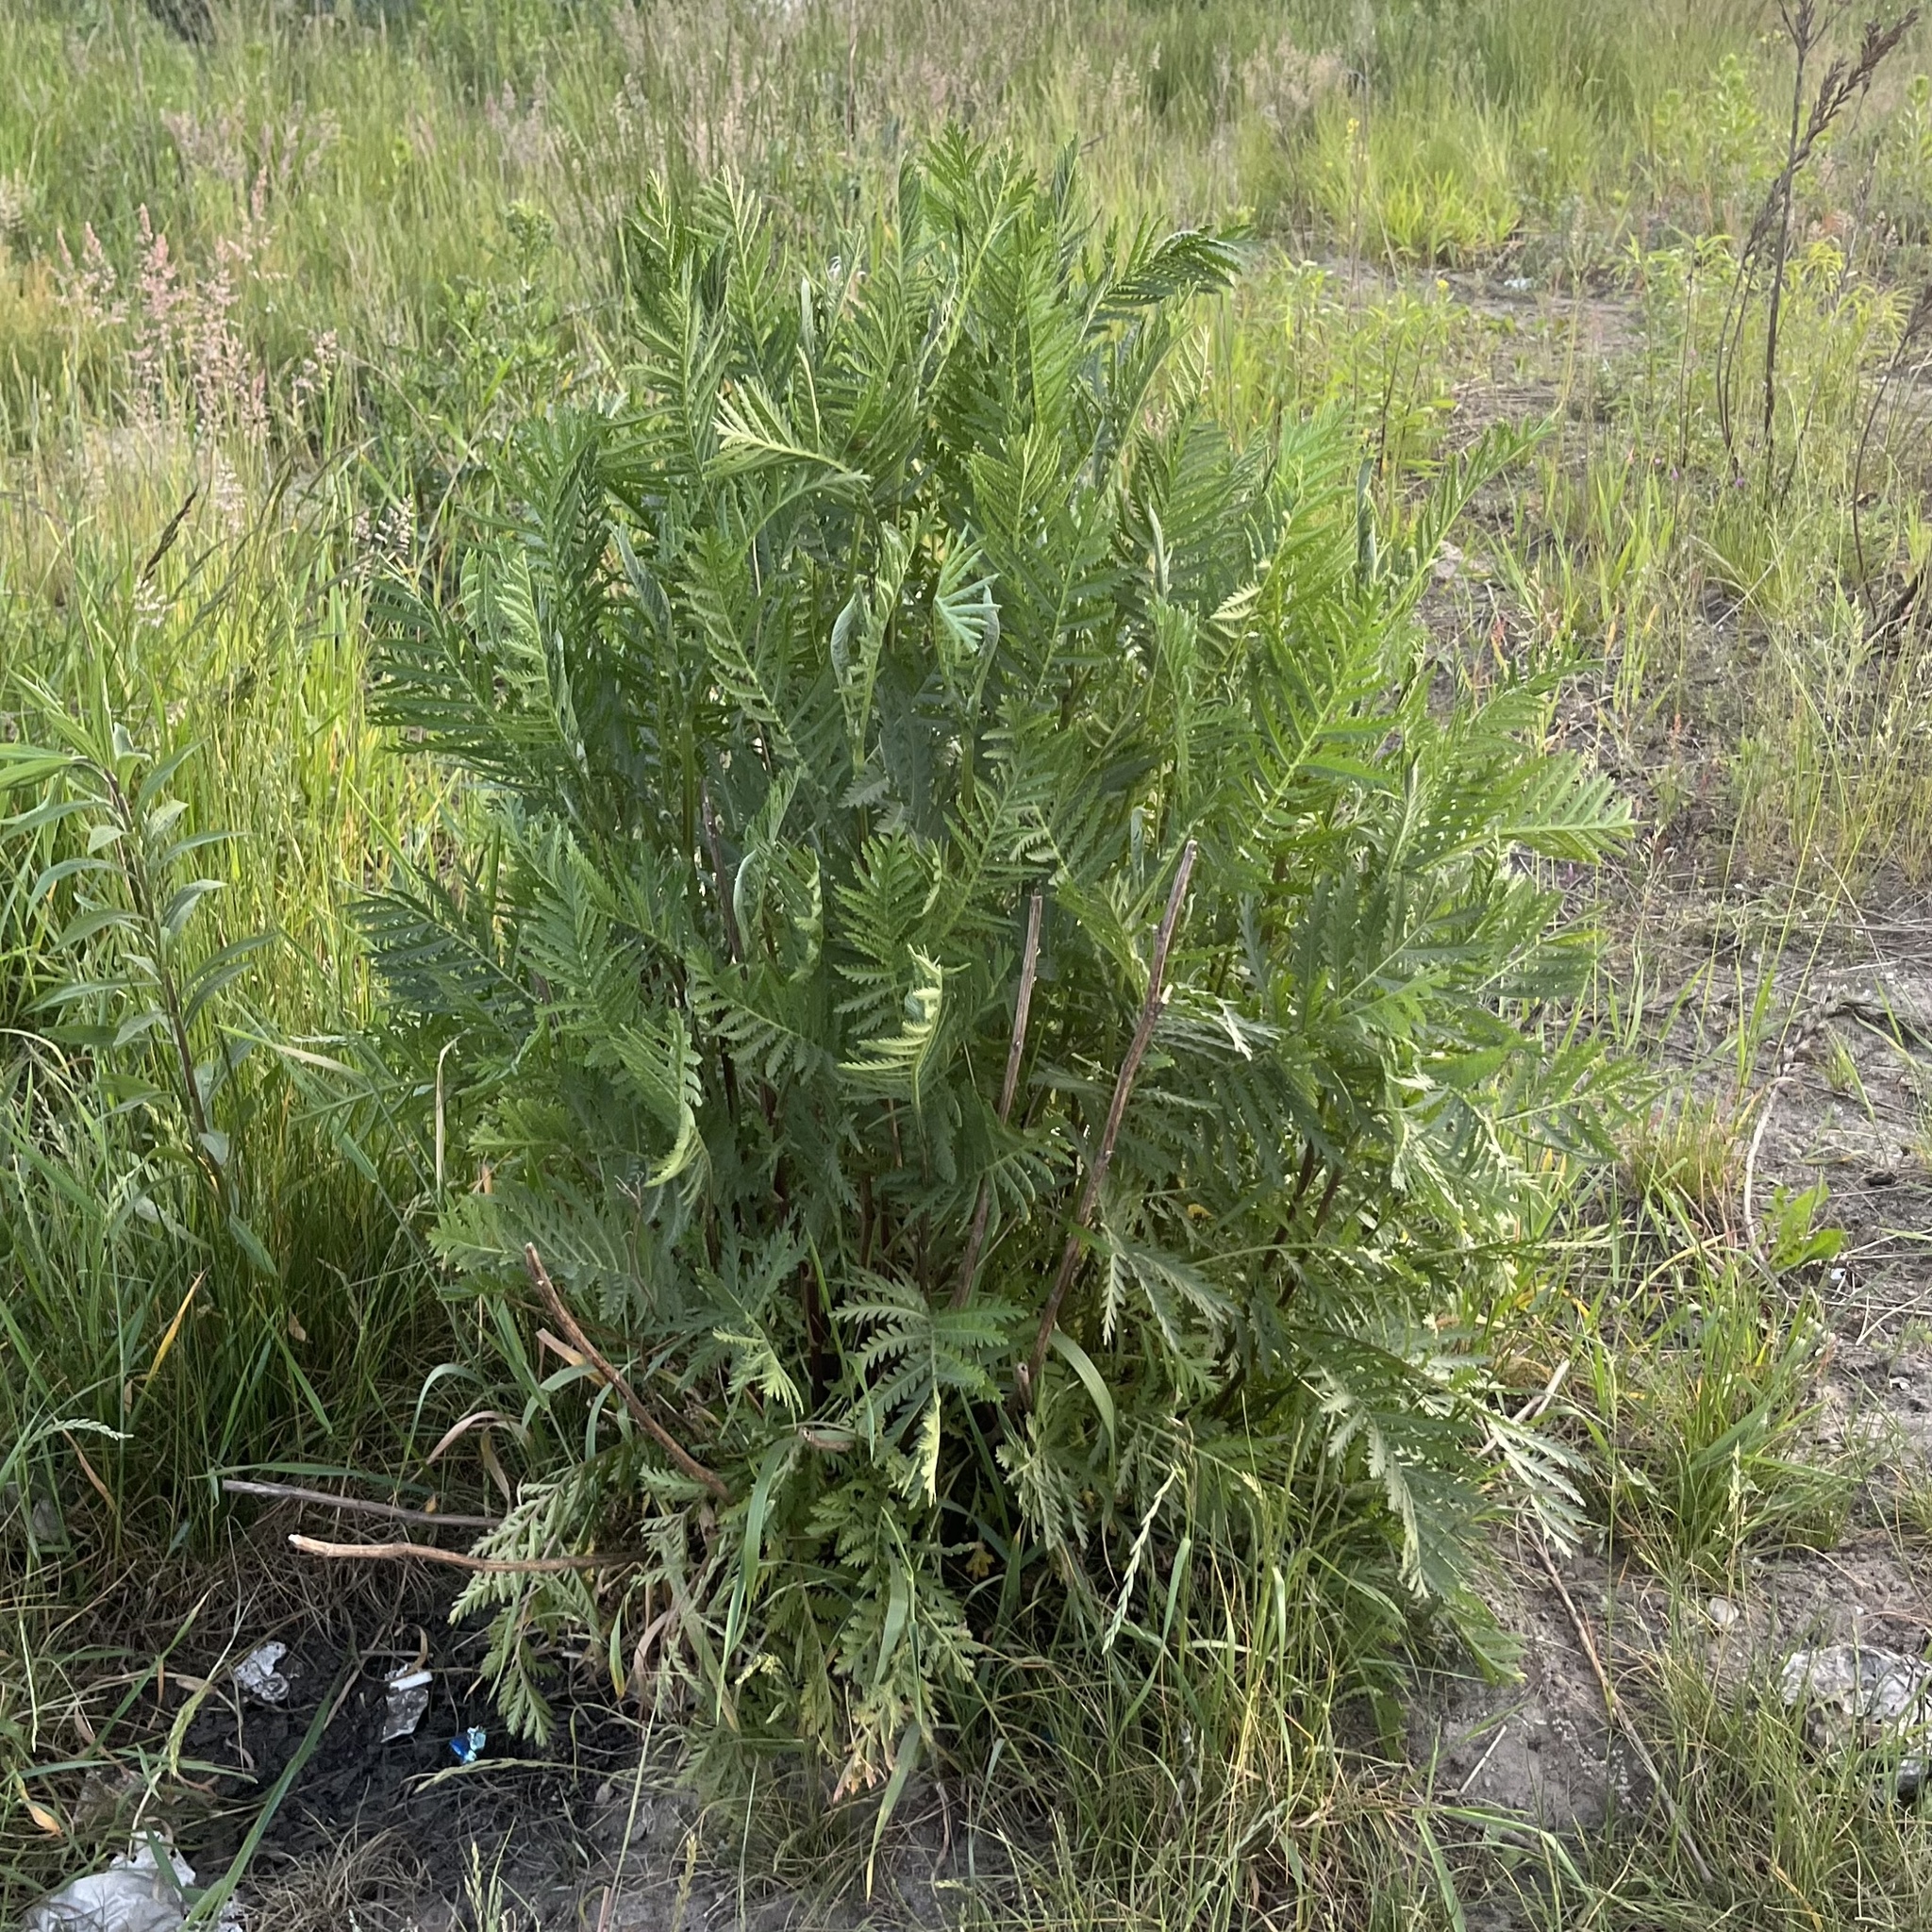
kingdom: Plantae
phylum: Tracheophyta
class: Magnoliopsida
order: Asterales
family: Asteraceae
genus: Tanacetum
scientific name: Tanacetum vulgare
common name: Common tansy
